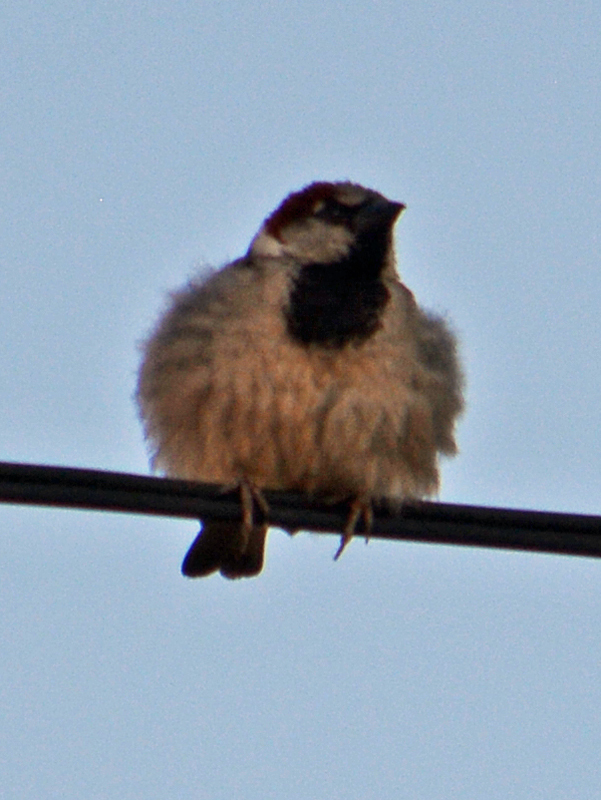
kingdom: Animalia
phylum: Chordata
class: Aves
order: Passeriformes
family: Passeridae
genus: Passer
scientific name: Passer domesticus
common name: House sparrow
